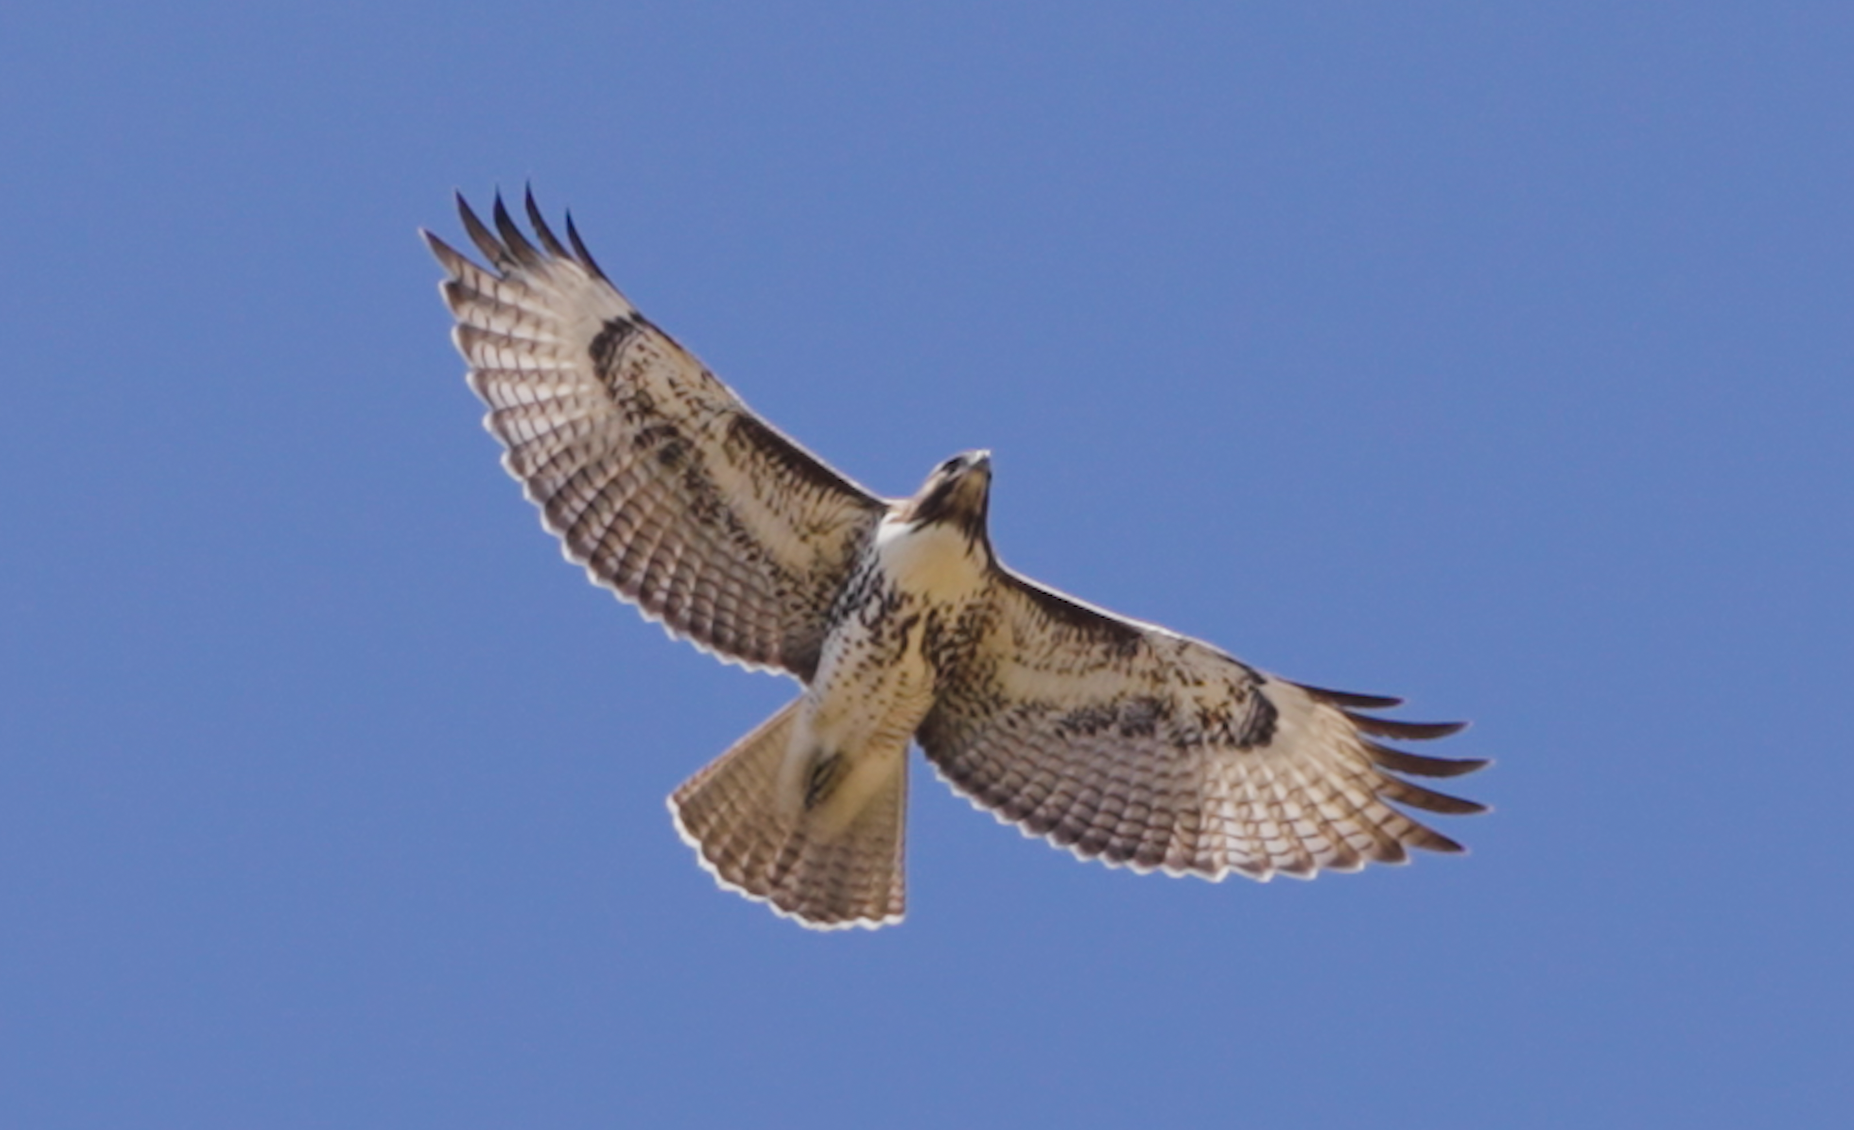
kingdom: Animalia
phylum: Chordata
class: Aves
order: Accipitriformes
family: Accipitridae
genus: Buteo
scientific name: Buteo jamaicensis
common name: Red-tailed hawk
